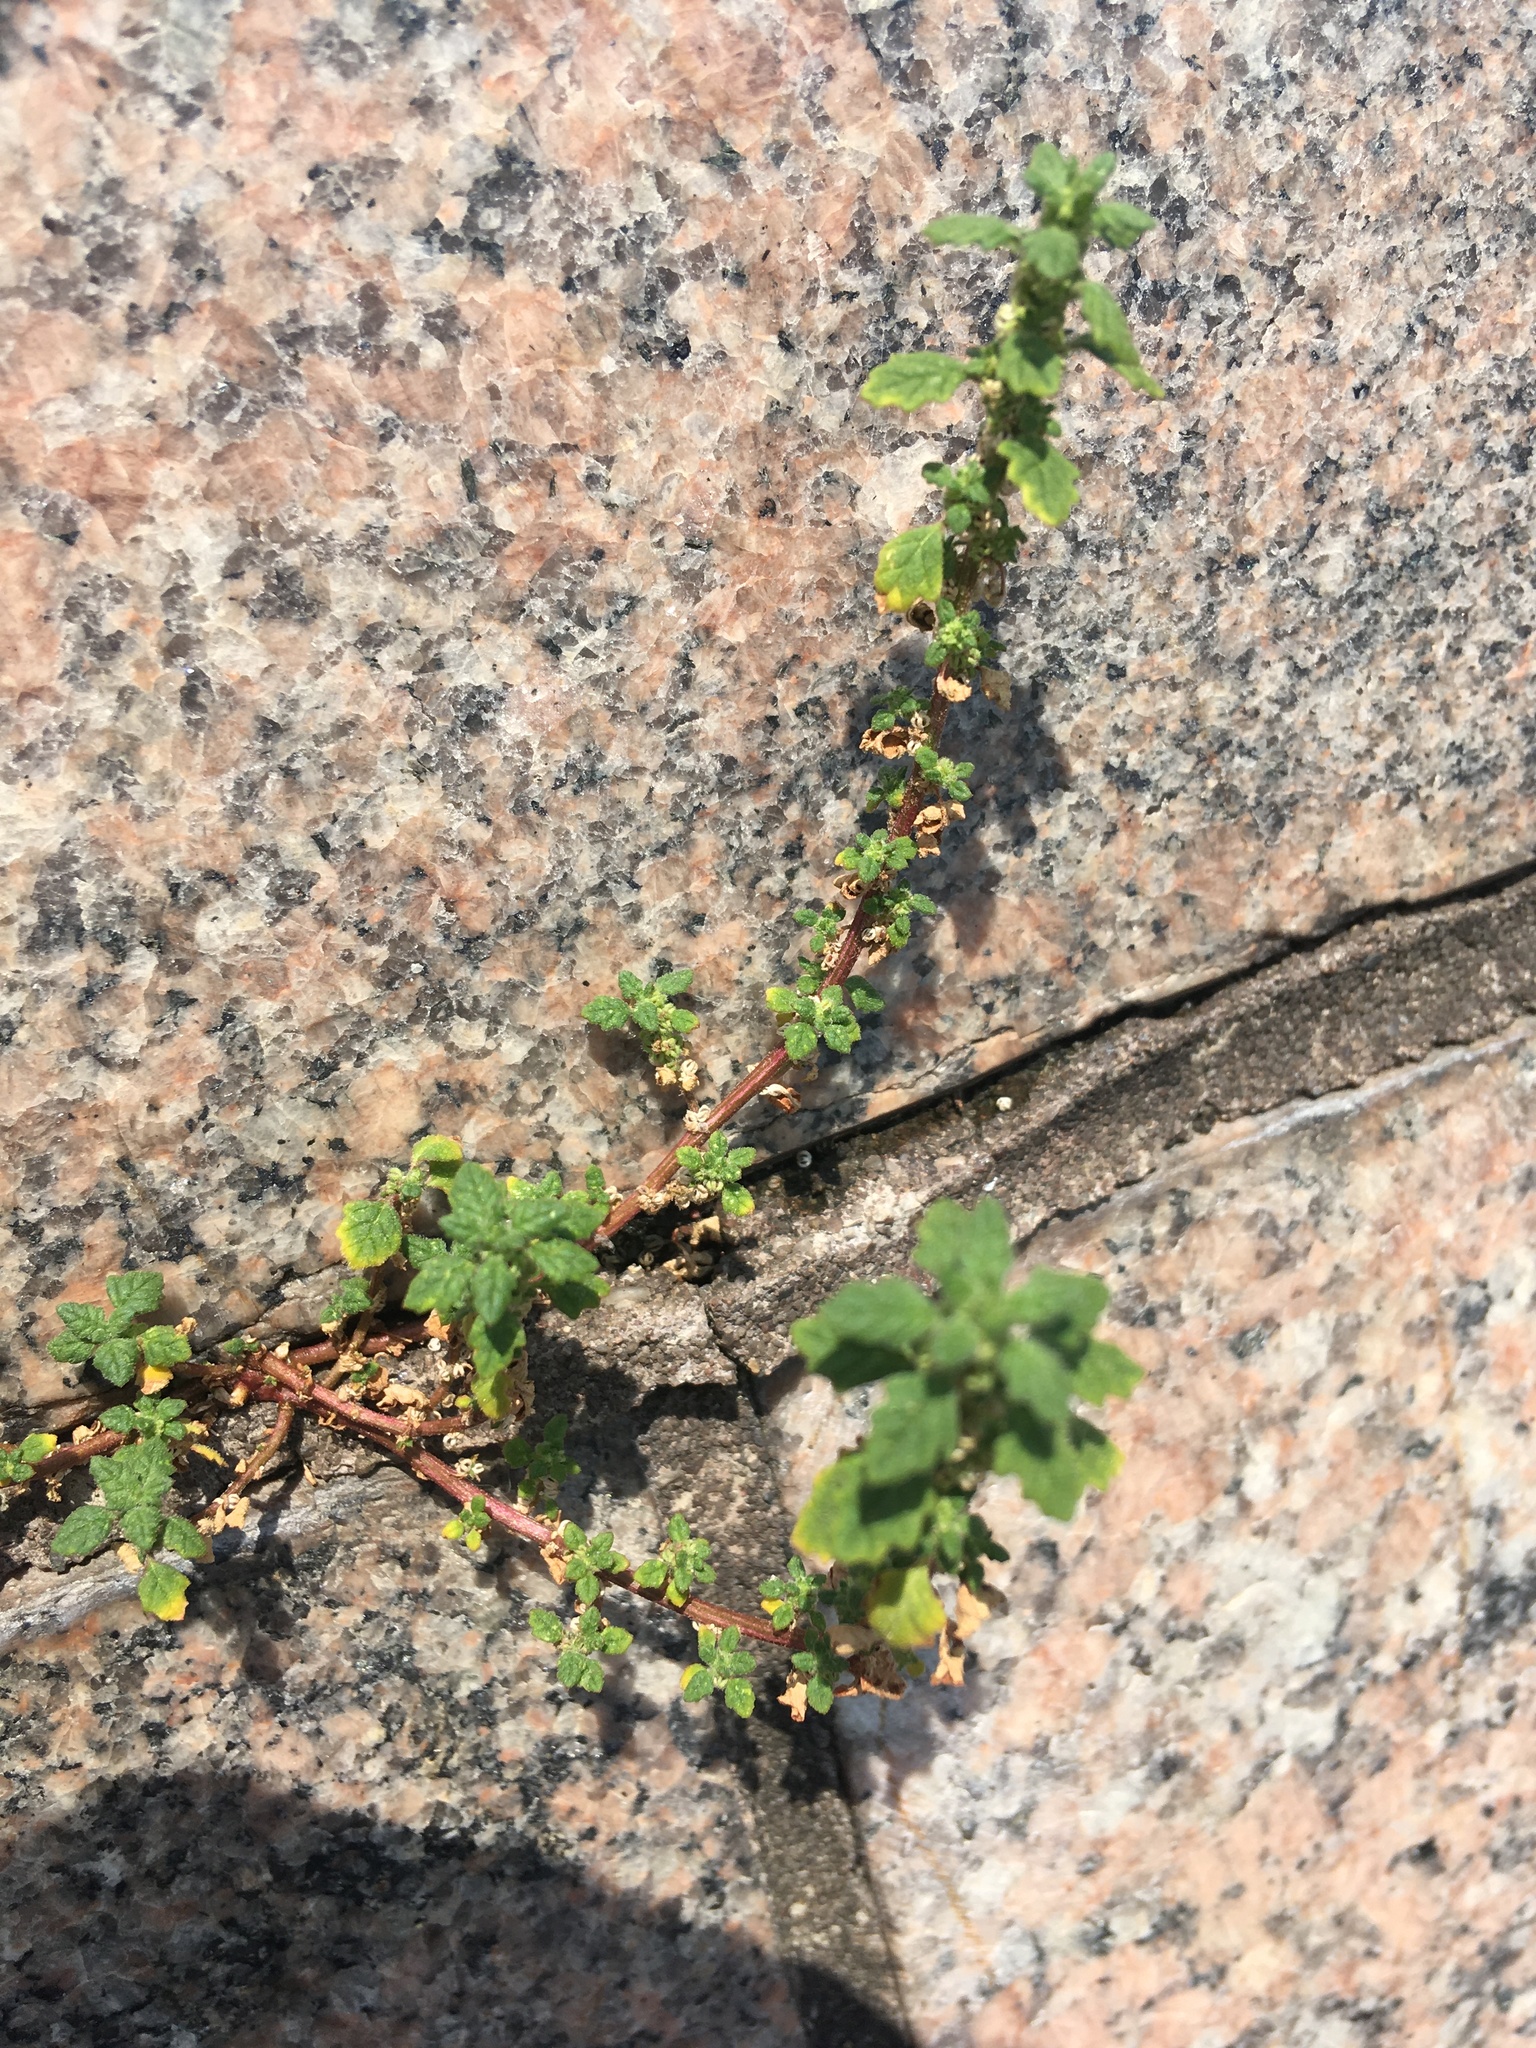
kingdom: Plantae
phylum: Tracheophyta
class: Magnoliopsida
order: Caryophyllales
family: Amaranthaceae
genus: Dysphania
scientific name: Dysphania pumilio
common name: Clammy goosefoot
